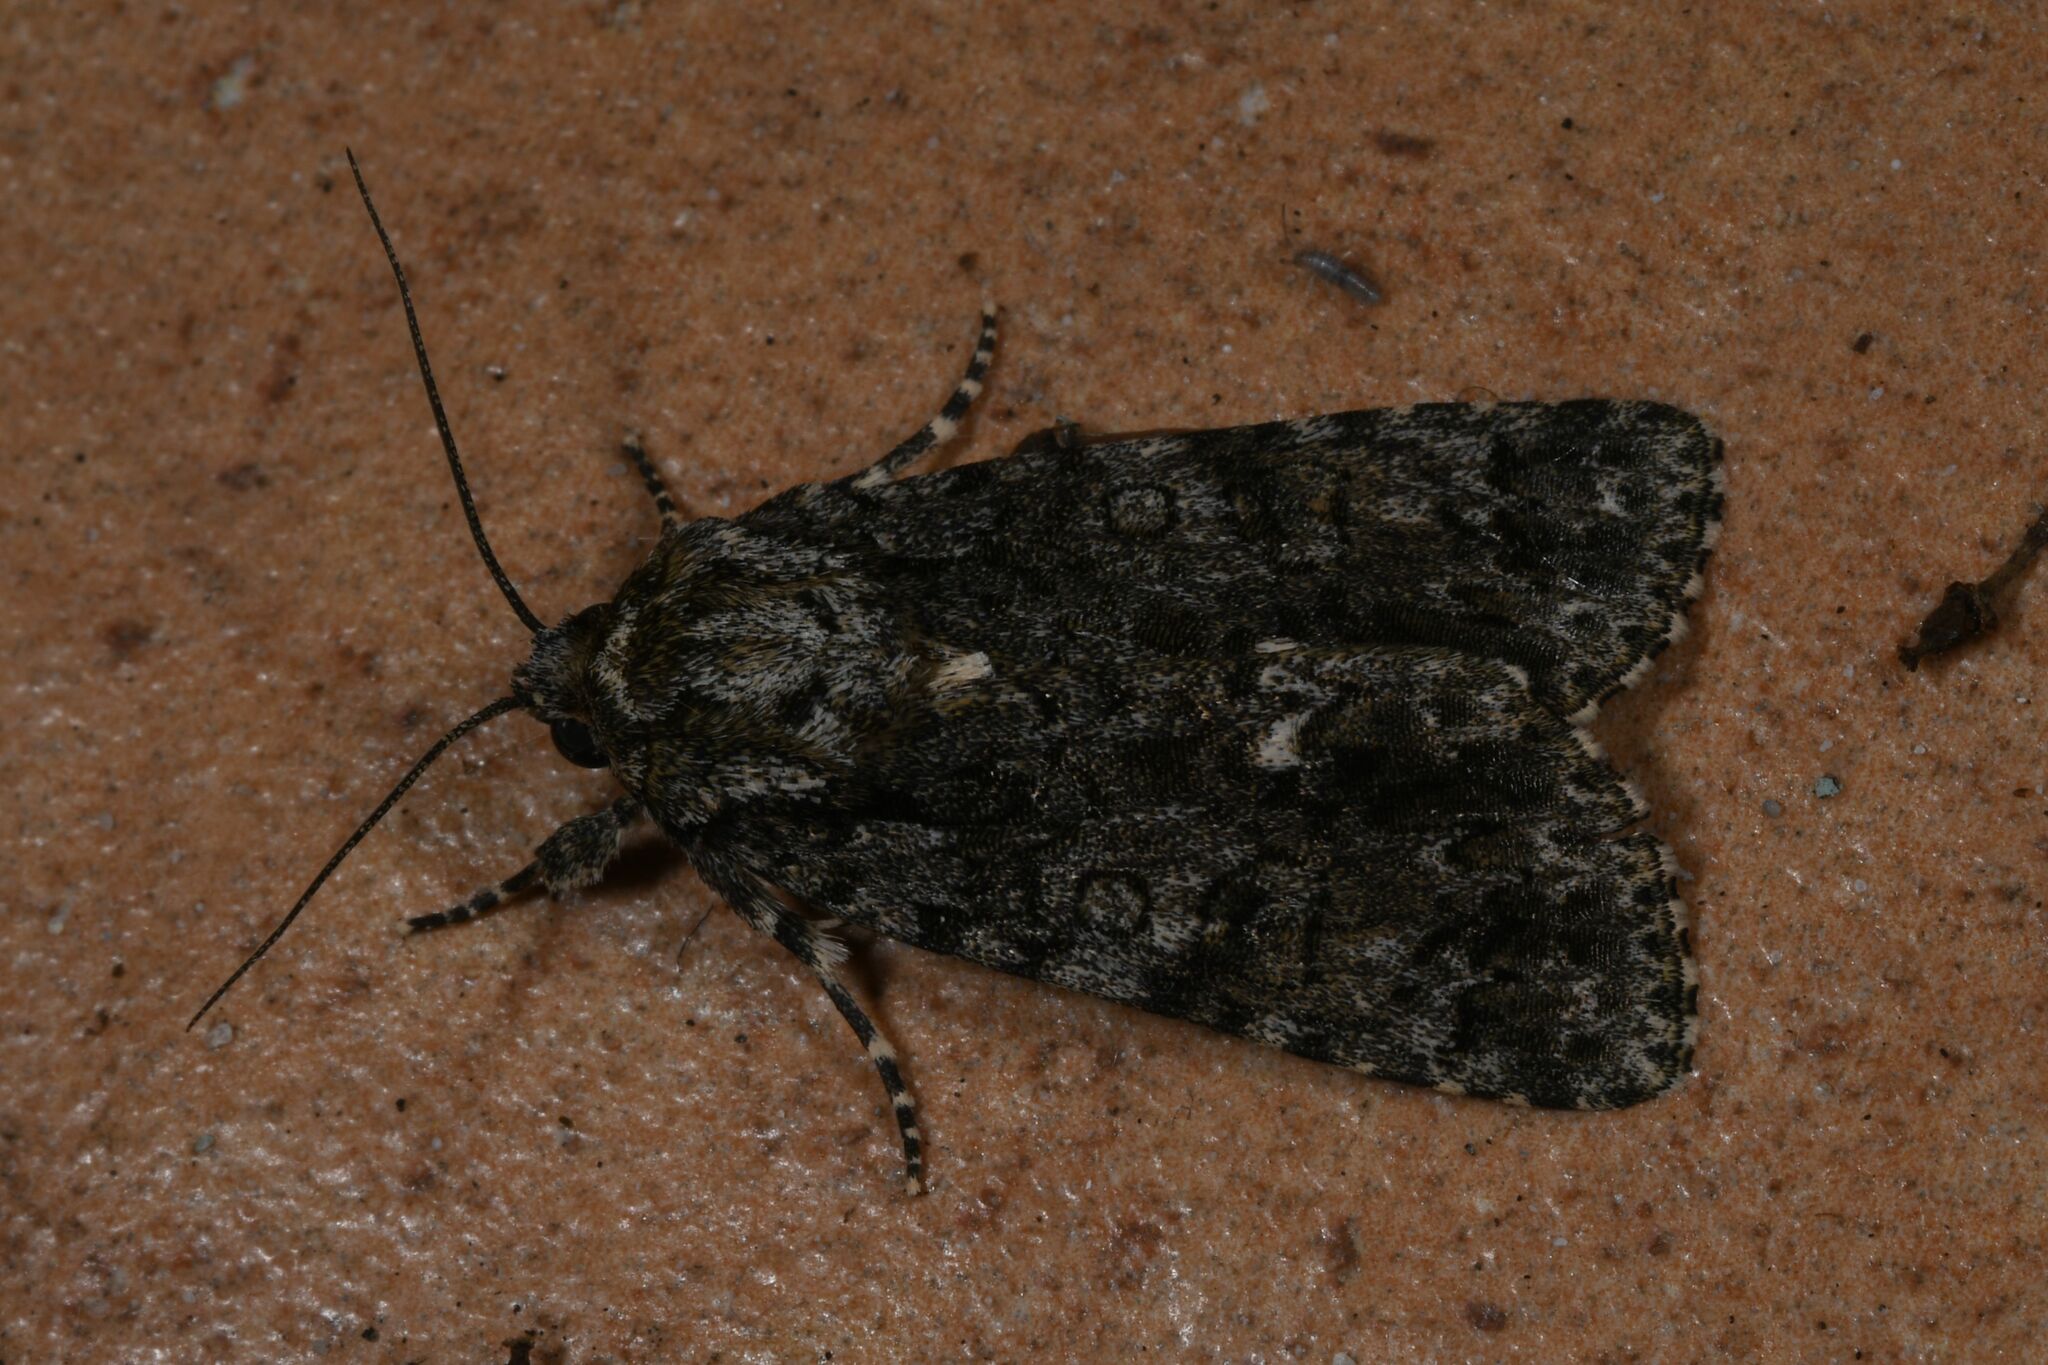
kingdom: Animalia
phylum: Arthropoda
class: Insecta
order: Lepidoptera
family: Noctuidae
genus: Acronicta
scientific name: Acronicta rumicis
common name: Knot grass
